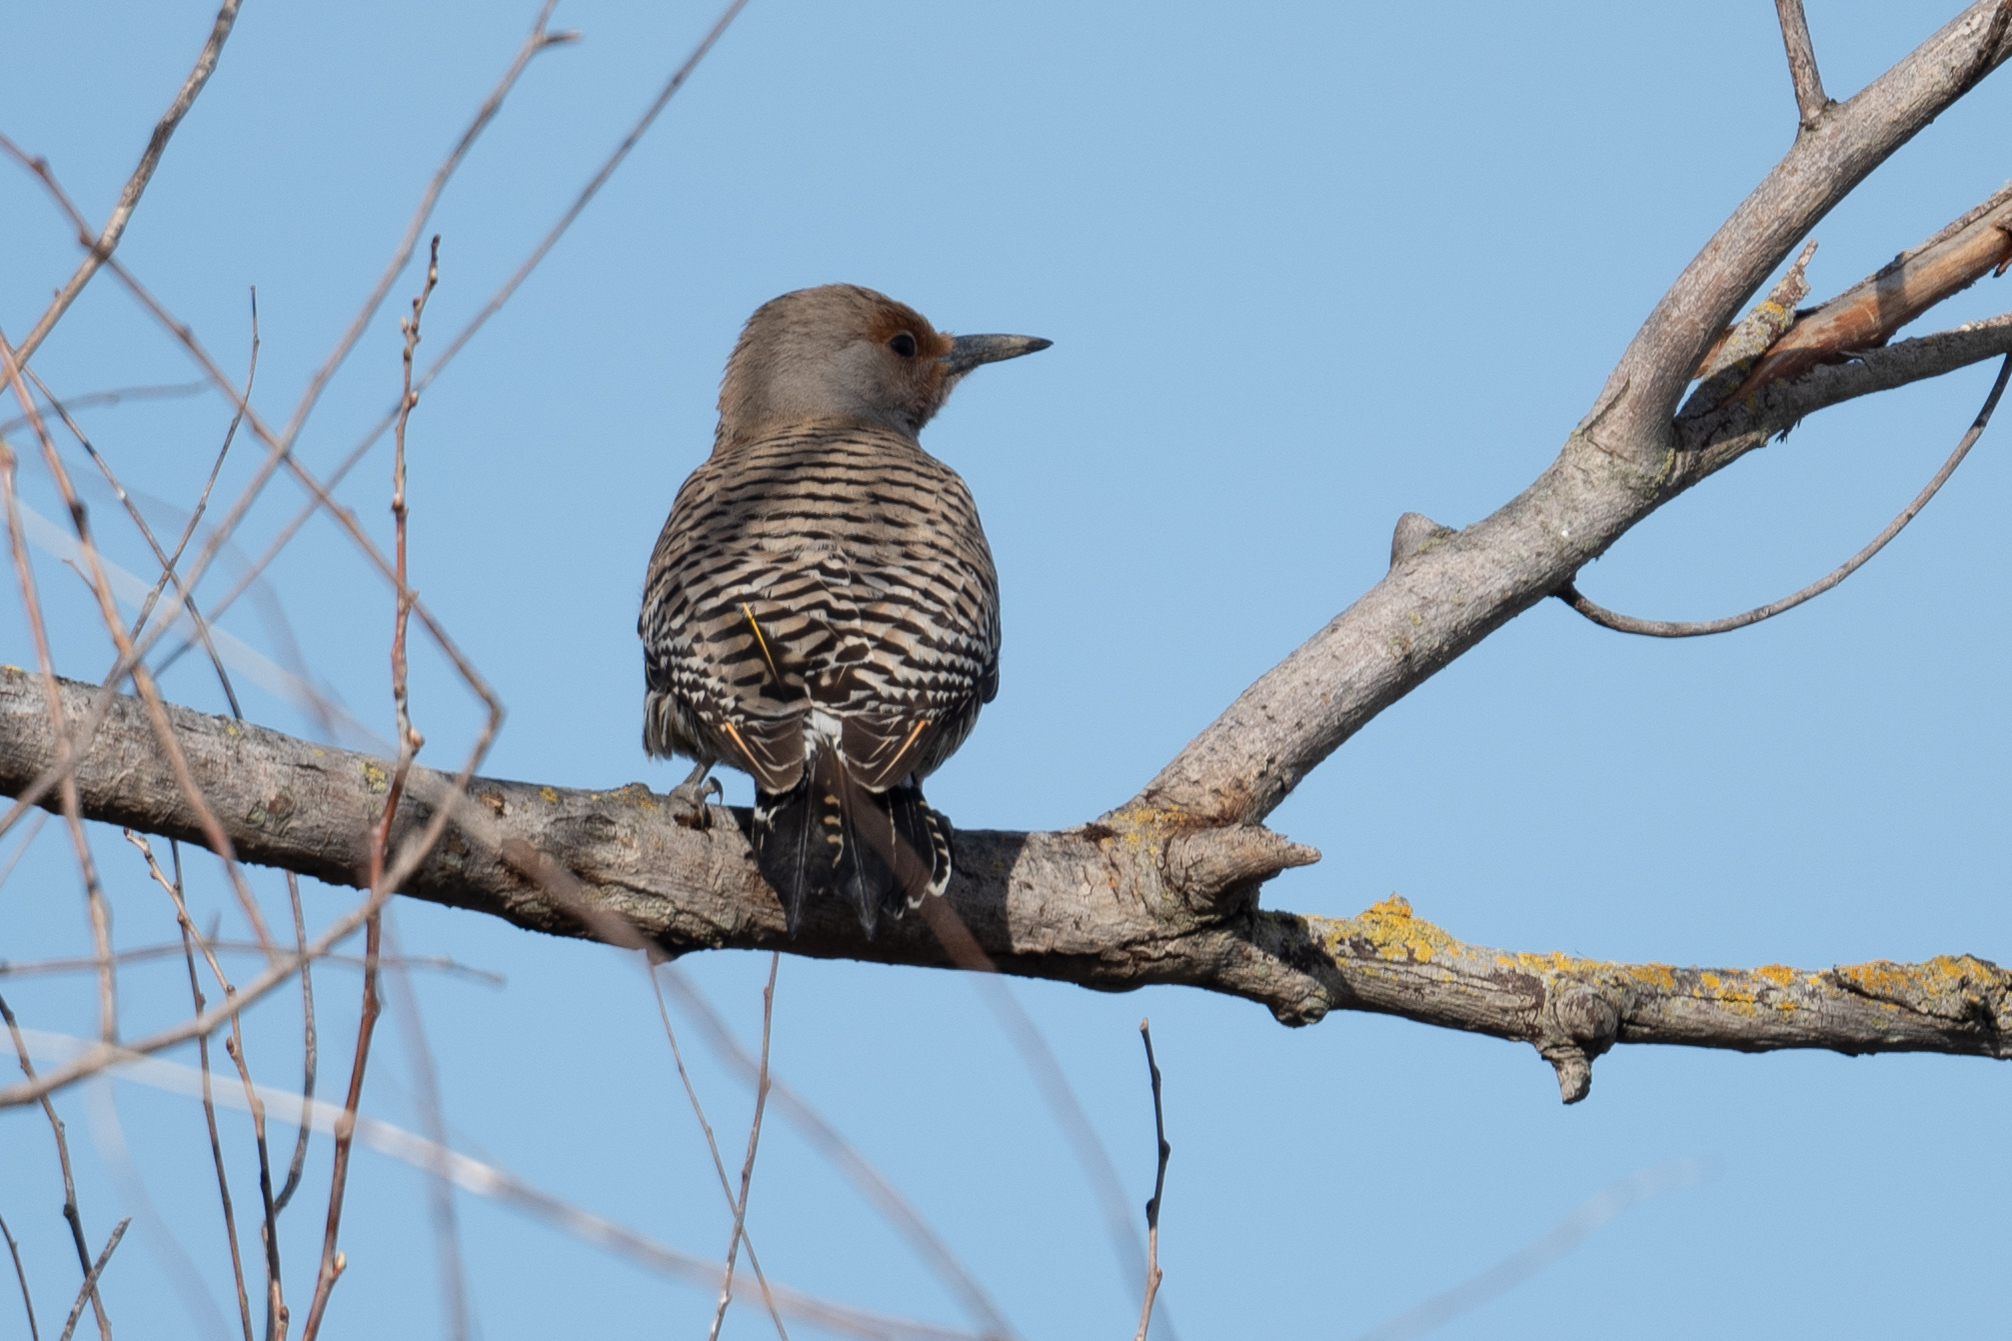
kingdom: Animalia
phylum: Chordata
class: Aves
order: Piciformes
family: Picidae
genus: Colaptes
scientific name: Colaptes auratus
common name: Northern flicker
